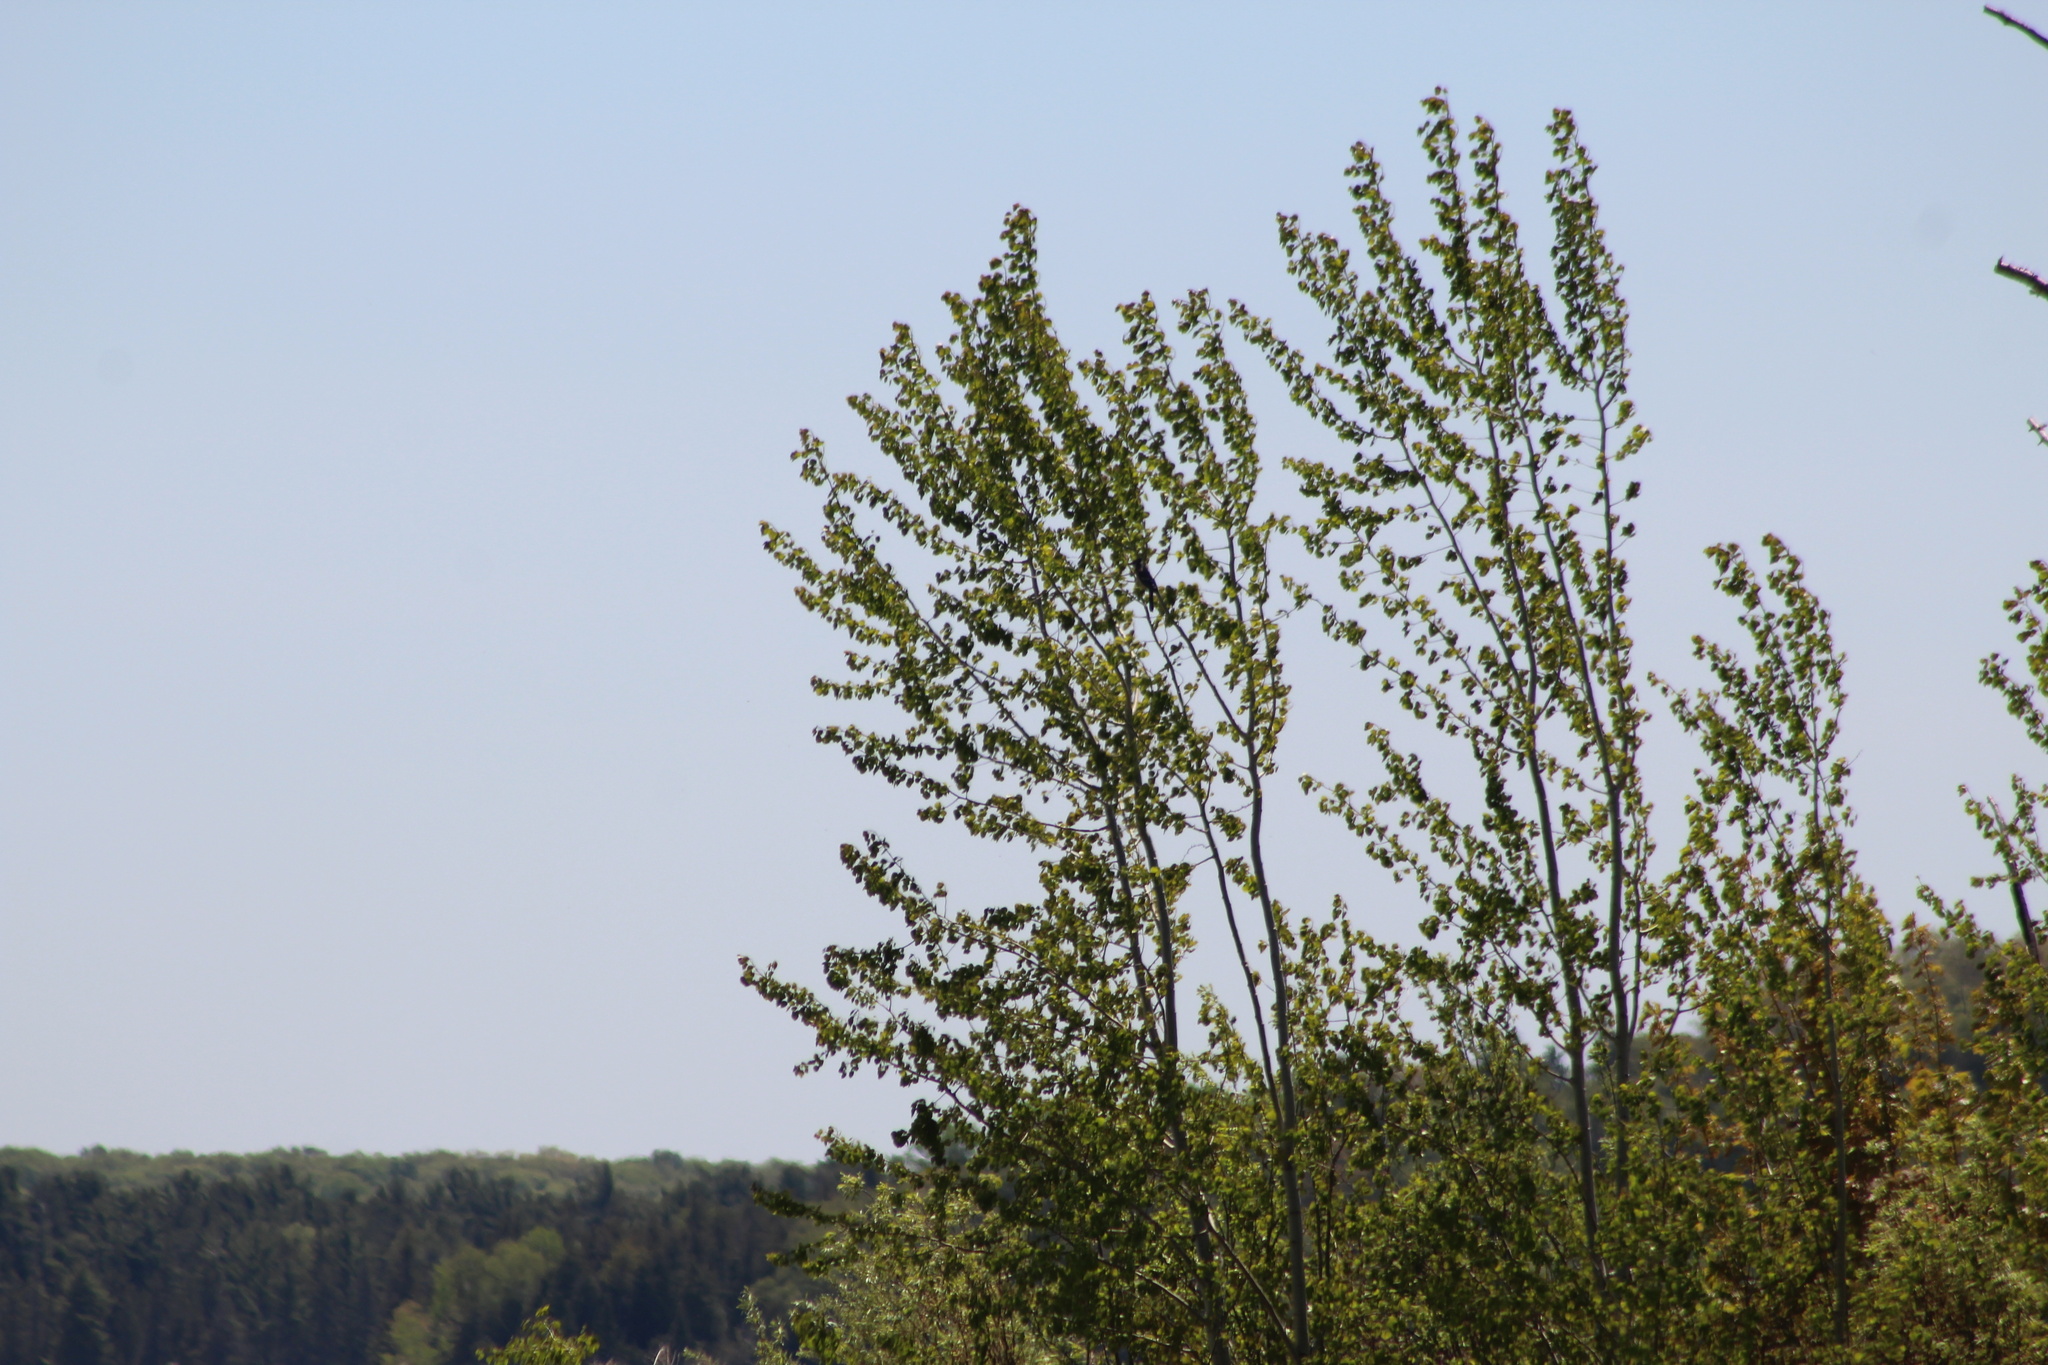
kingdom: Animalia
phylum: Chordata
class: Aves
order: Passeriformes
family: Corvidae
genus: Cyanocitta
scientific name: Cyanocitta cristata
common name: Blue jay
